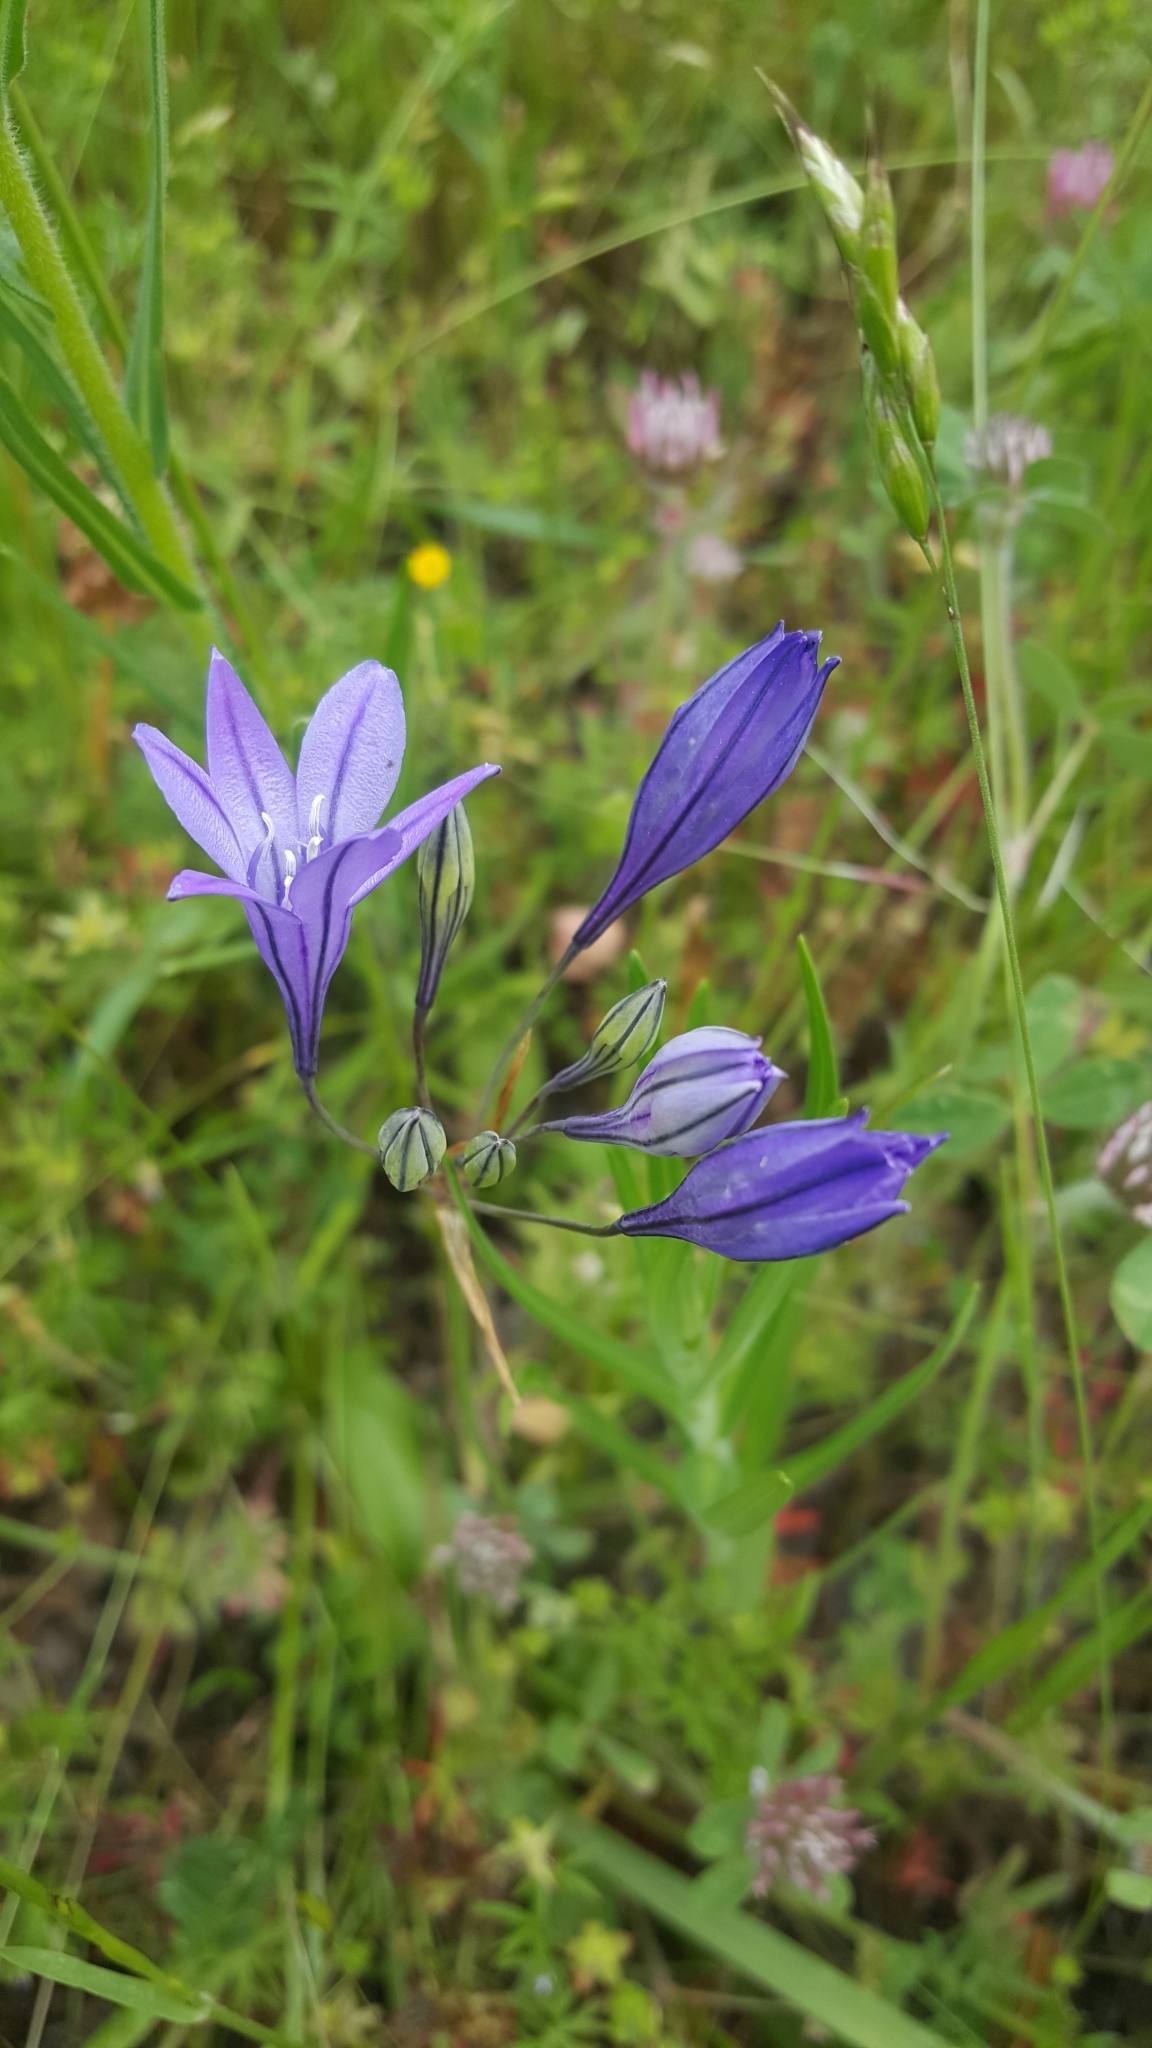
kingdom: Plantae
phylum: Tracheophyta
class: Liliopsida
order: Asparagales
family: Asparagaceae
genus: Triteleia
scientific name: Triteleia laxa
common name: Triplet-lily
